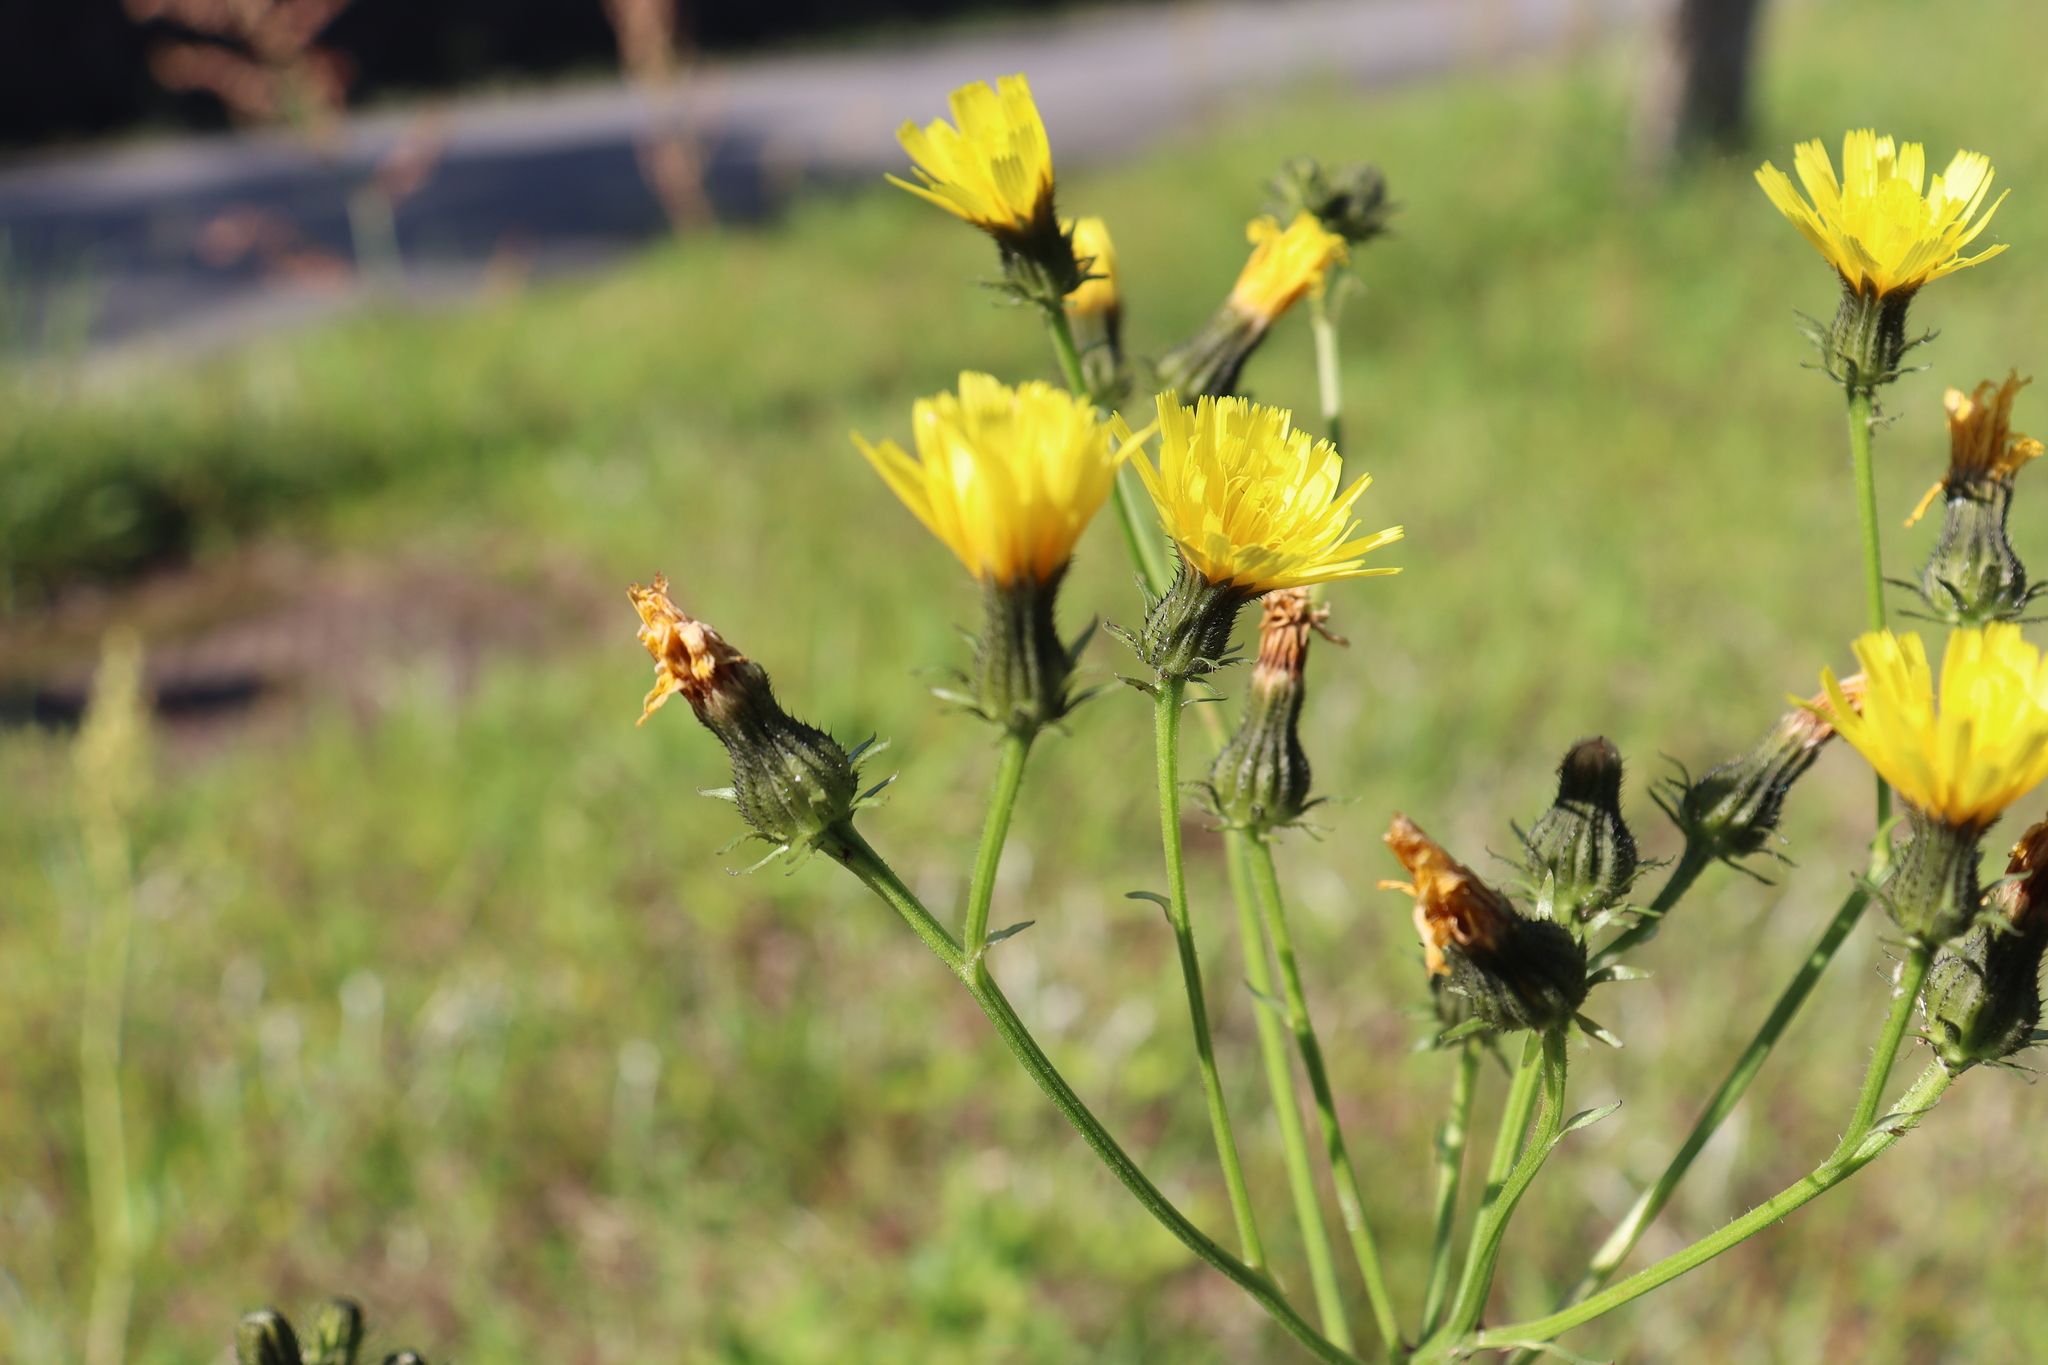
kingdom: Plantae
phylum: Tracheophyta
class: Magnoliopsida
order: Asterales
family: Asteraceae
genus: Picris
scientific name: Picris japonica
